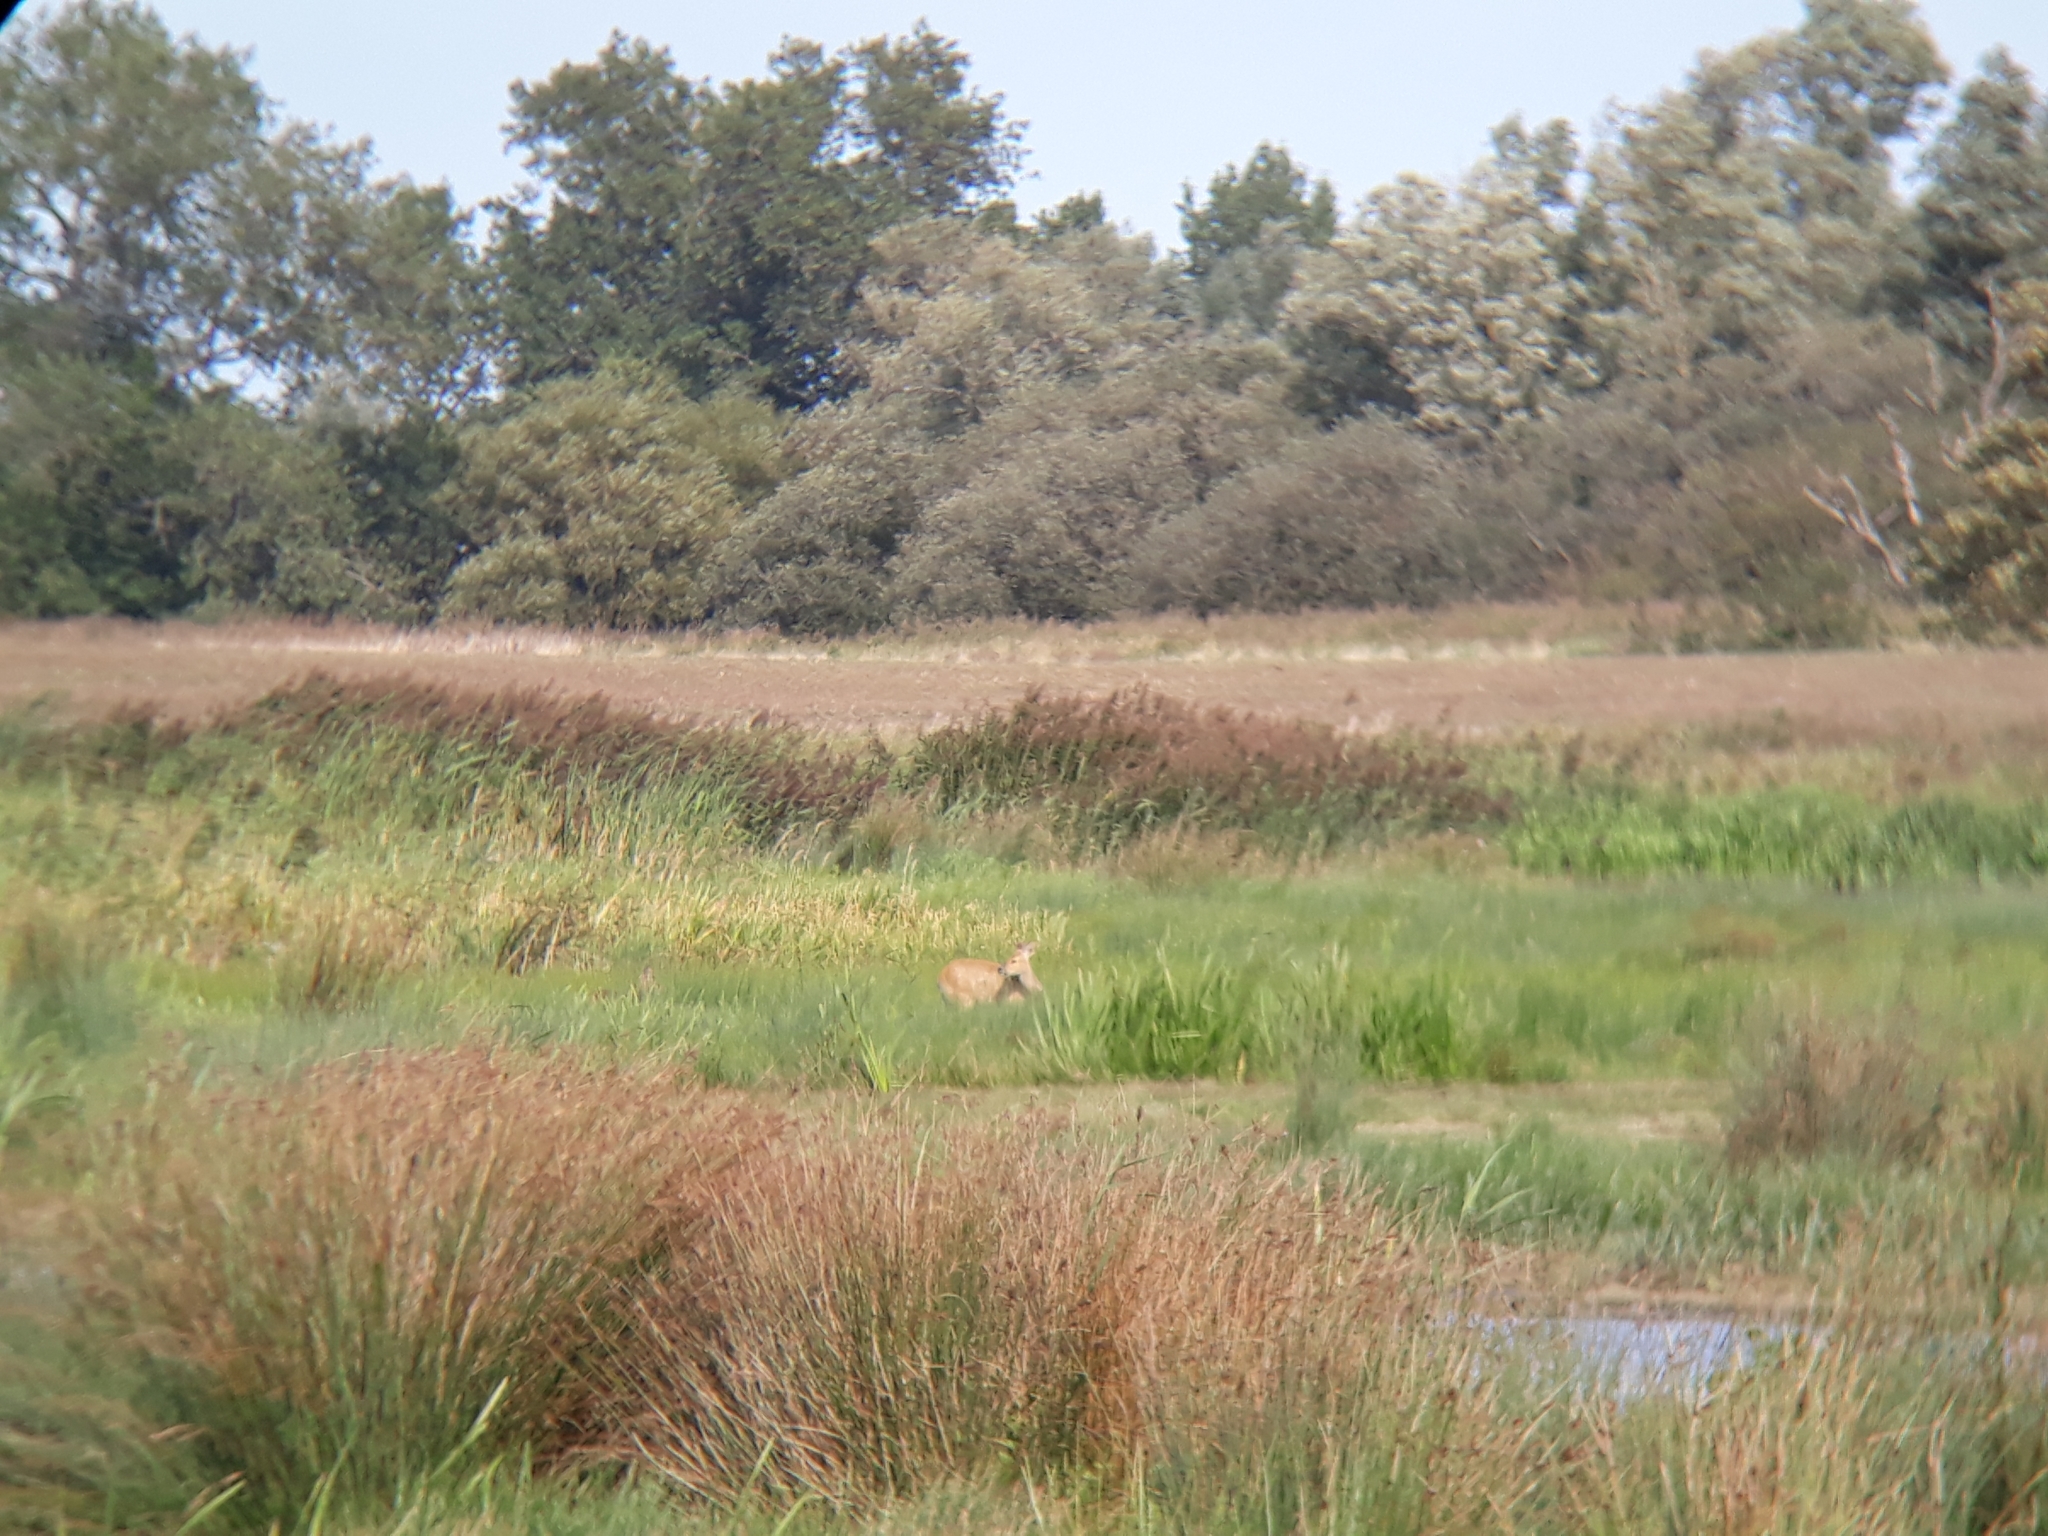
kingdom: Animalia
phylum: Chordata
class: Mammalia
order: Artiodactyla
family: Cervidae
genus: Capreolus
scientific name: Capreolus capreolus
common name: Western roe deer
